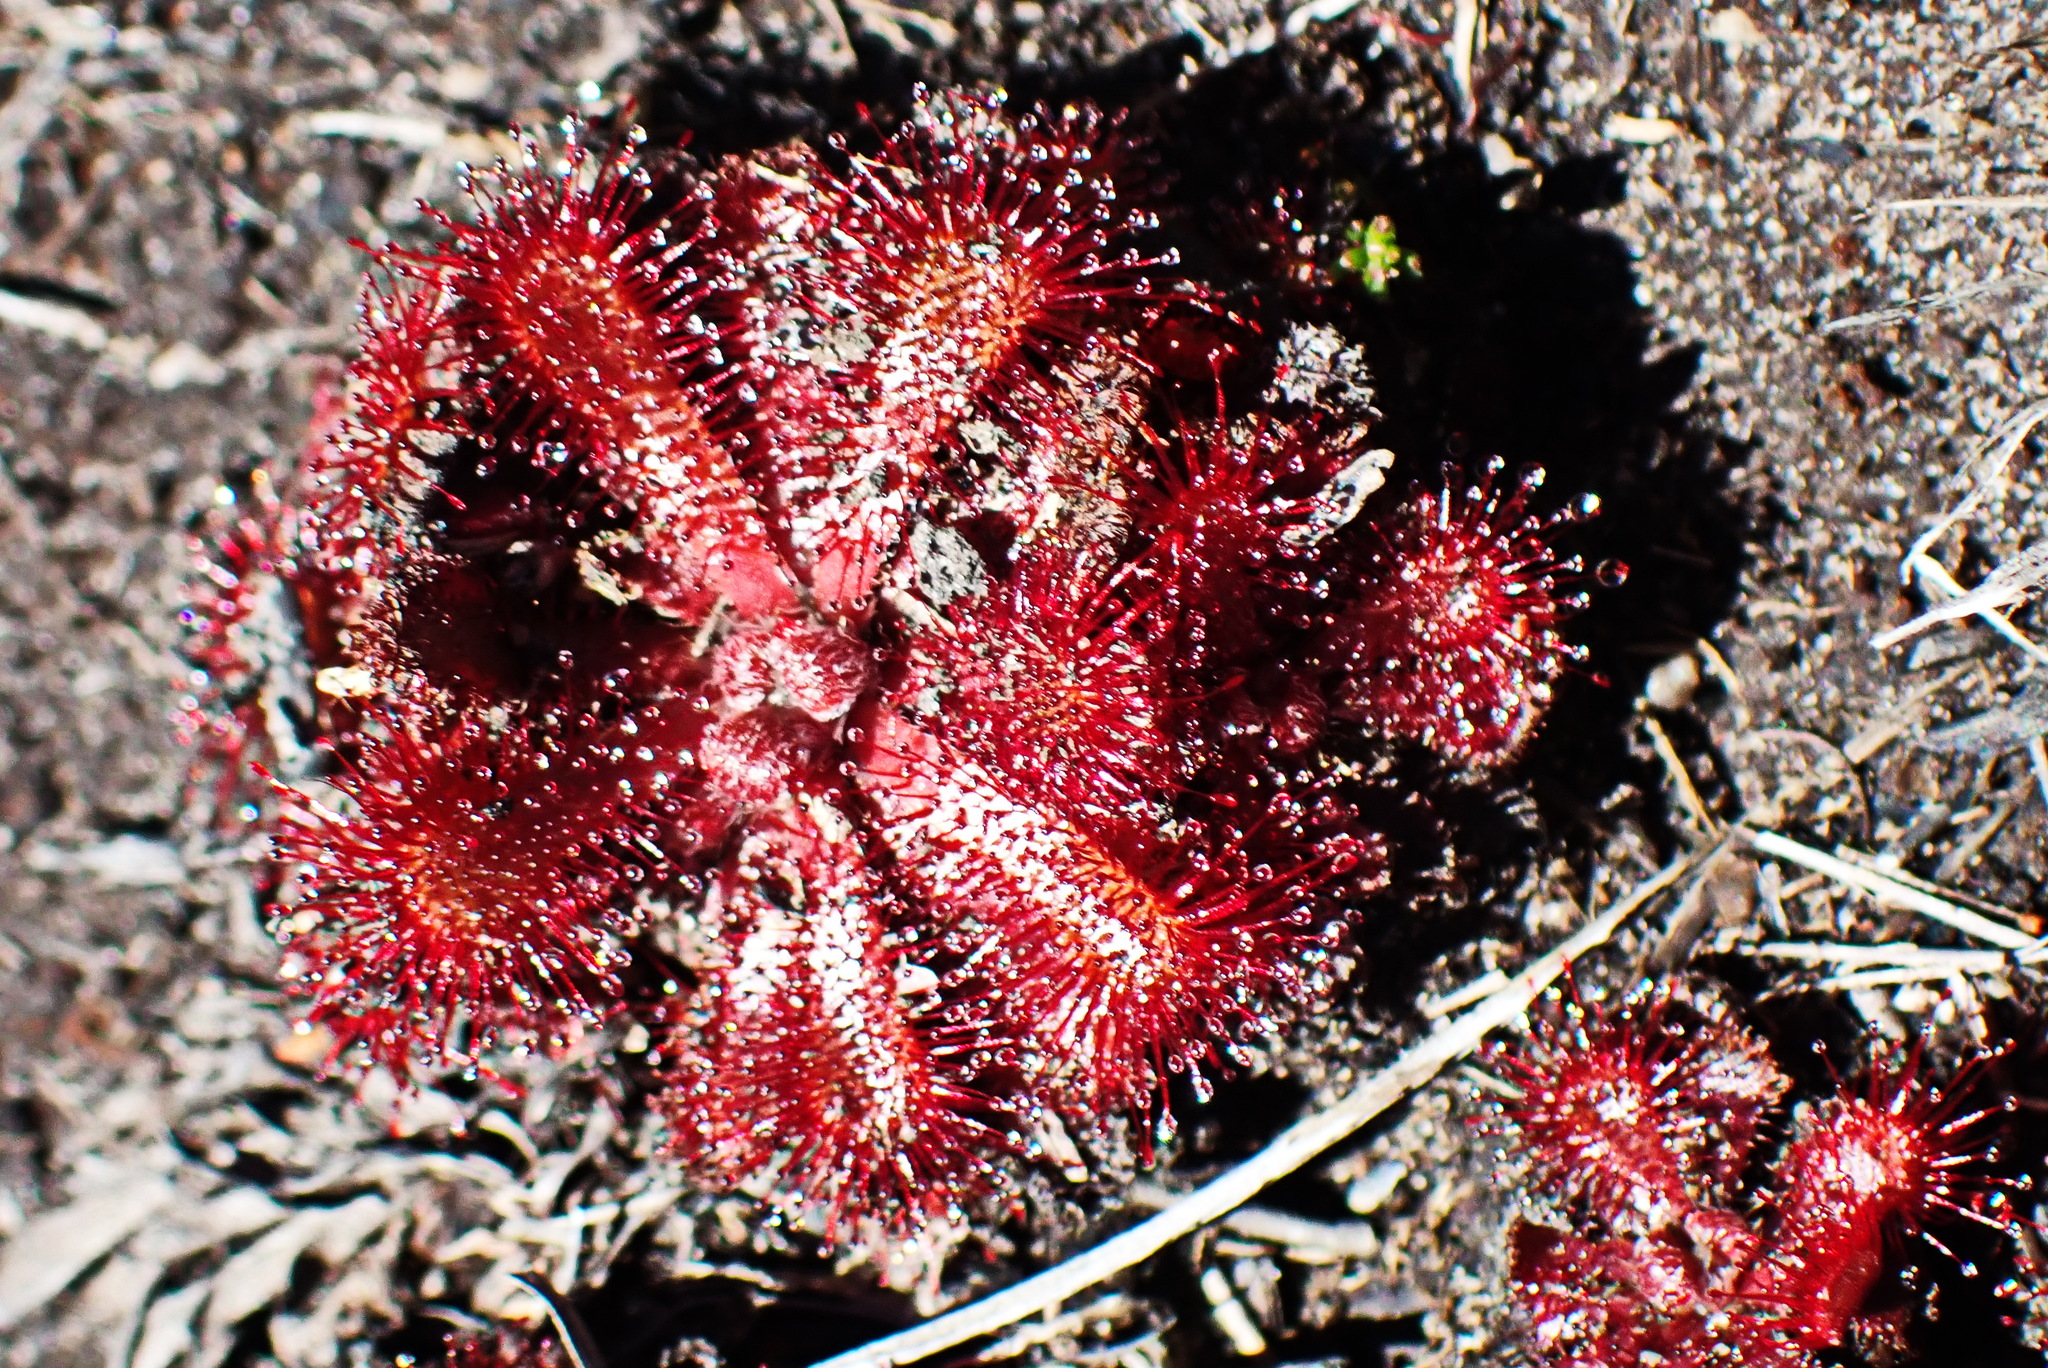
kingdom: Plantae
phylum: Tracheophyta
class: Magnoliopsida
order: Caryophyllales
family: Droseraceae
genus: Drosera
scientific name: Drosera aliciae
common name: Alice sundew
